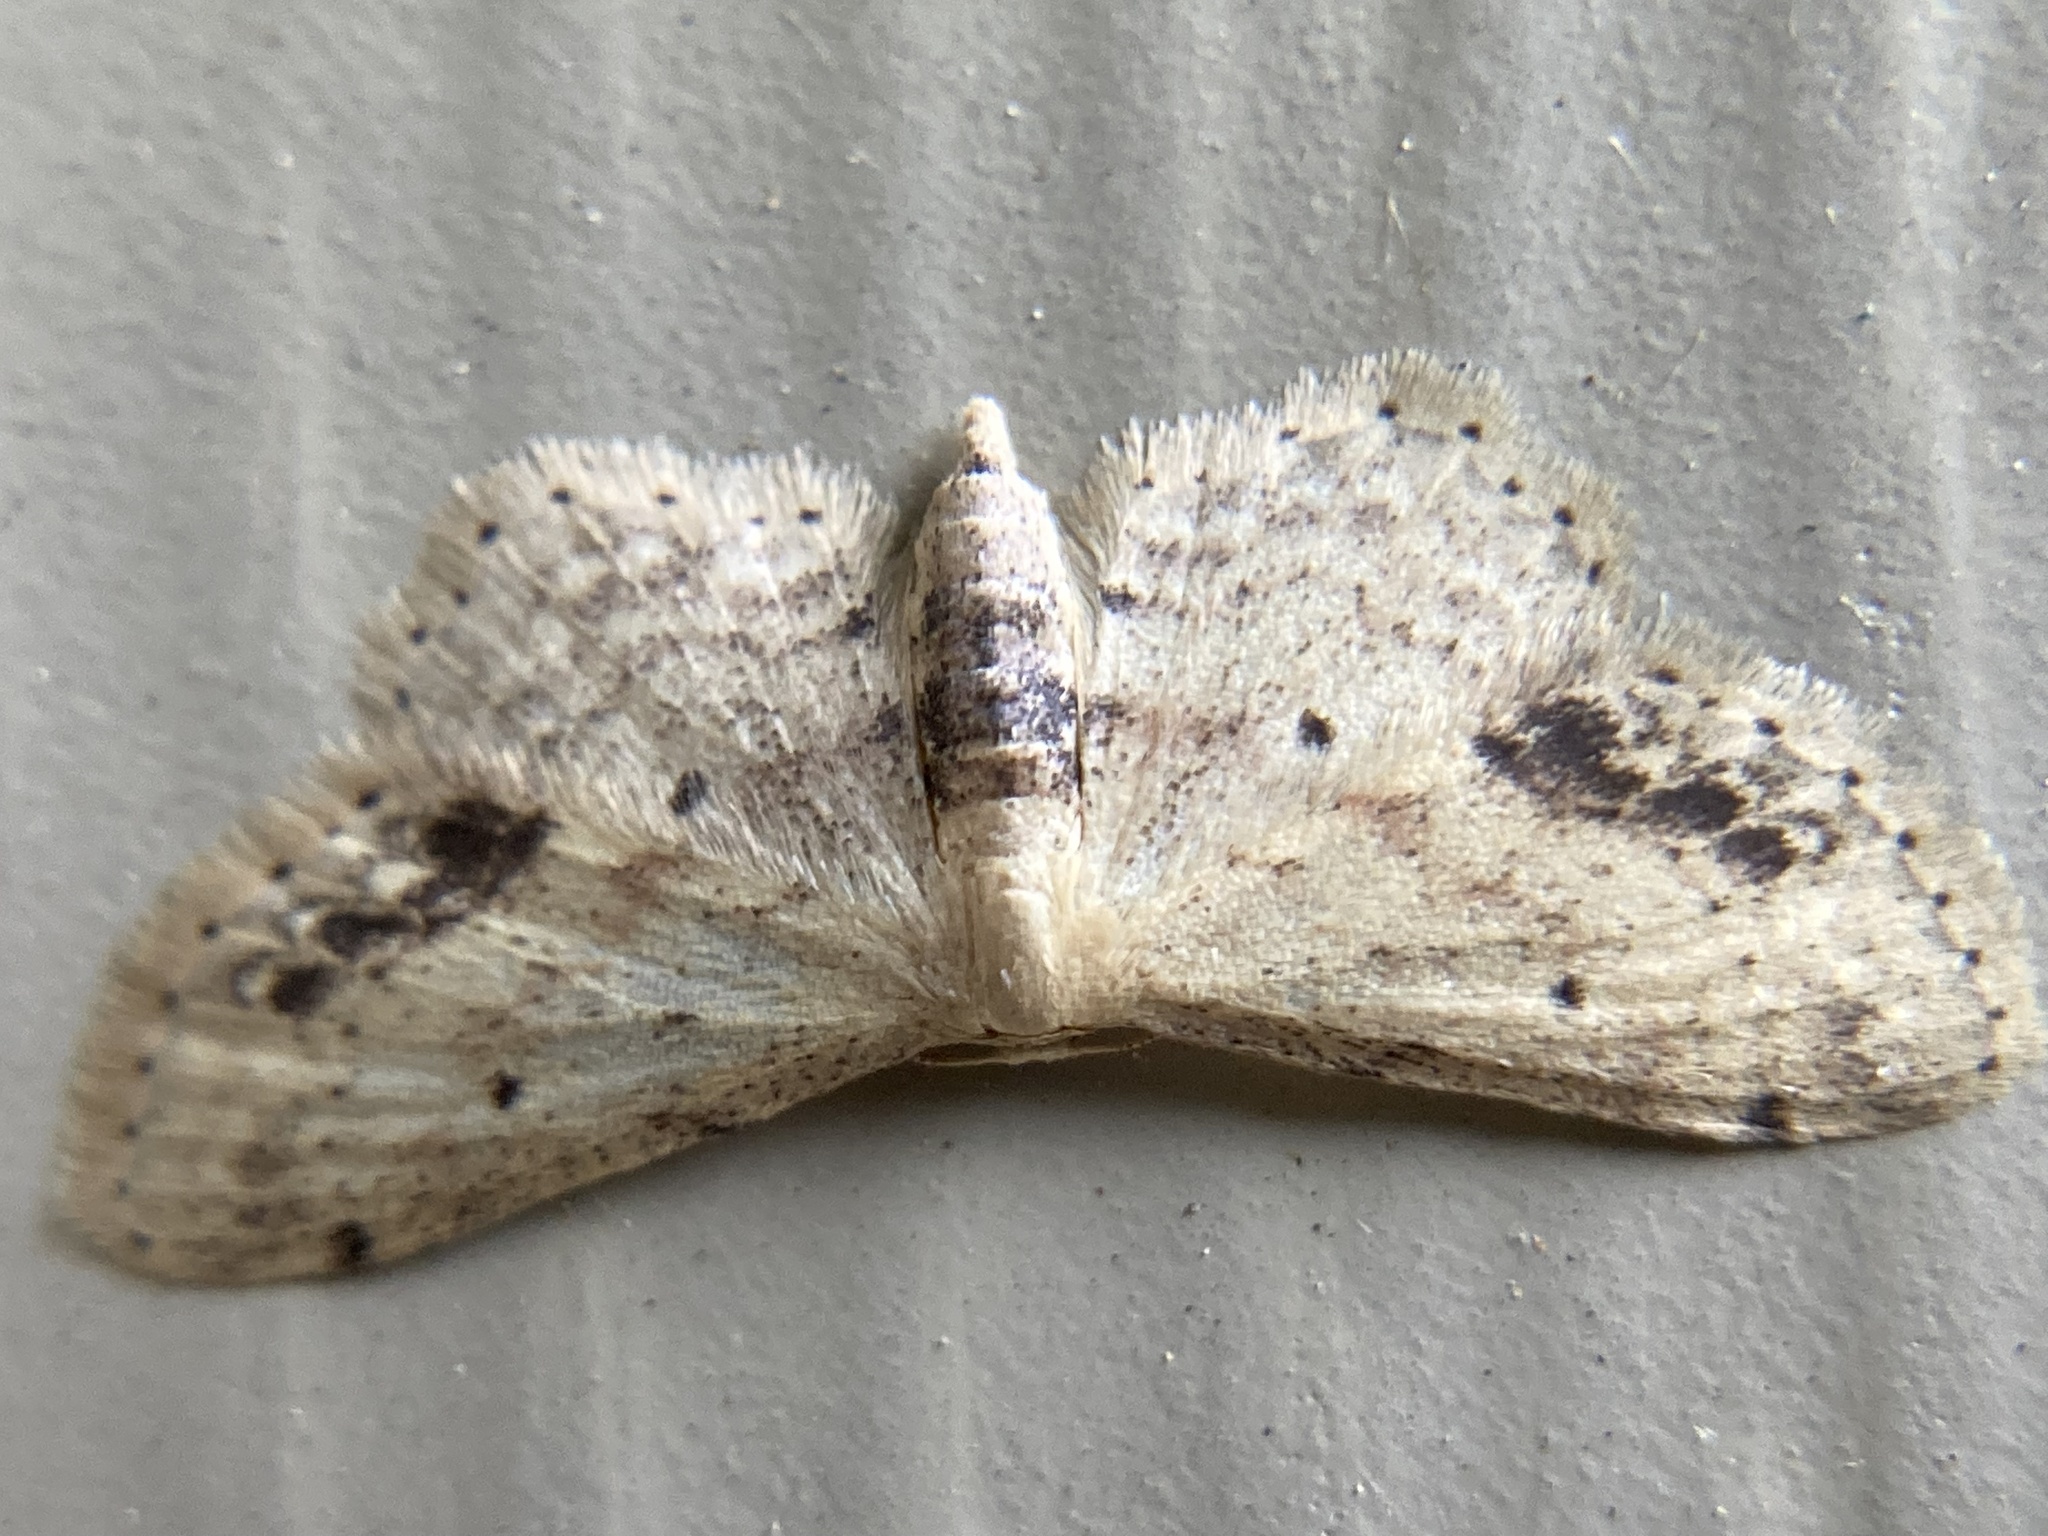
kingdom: Animalia
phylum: Arthropoda
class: Insecta
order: Lepidoptera
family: Geometridae
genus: Idaea
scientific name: Idaea dimidiata
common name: Single-dotted wave
